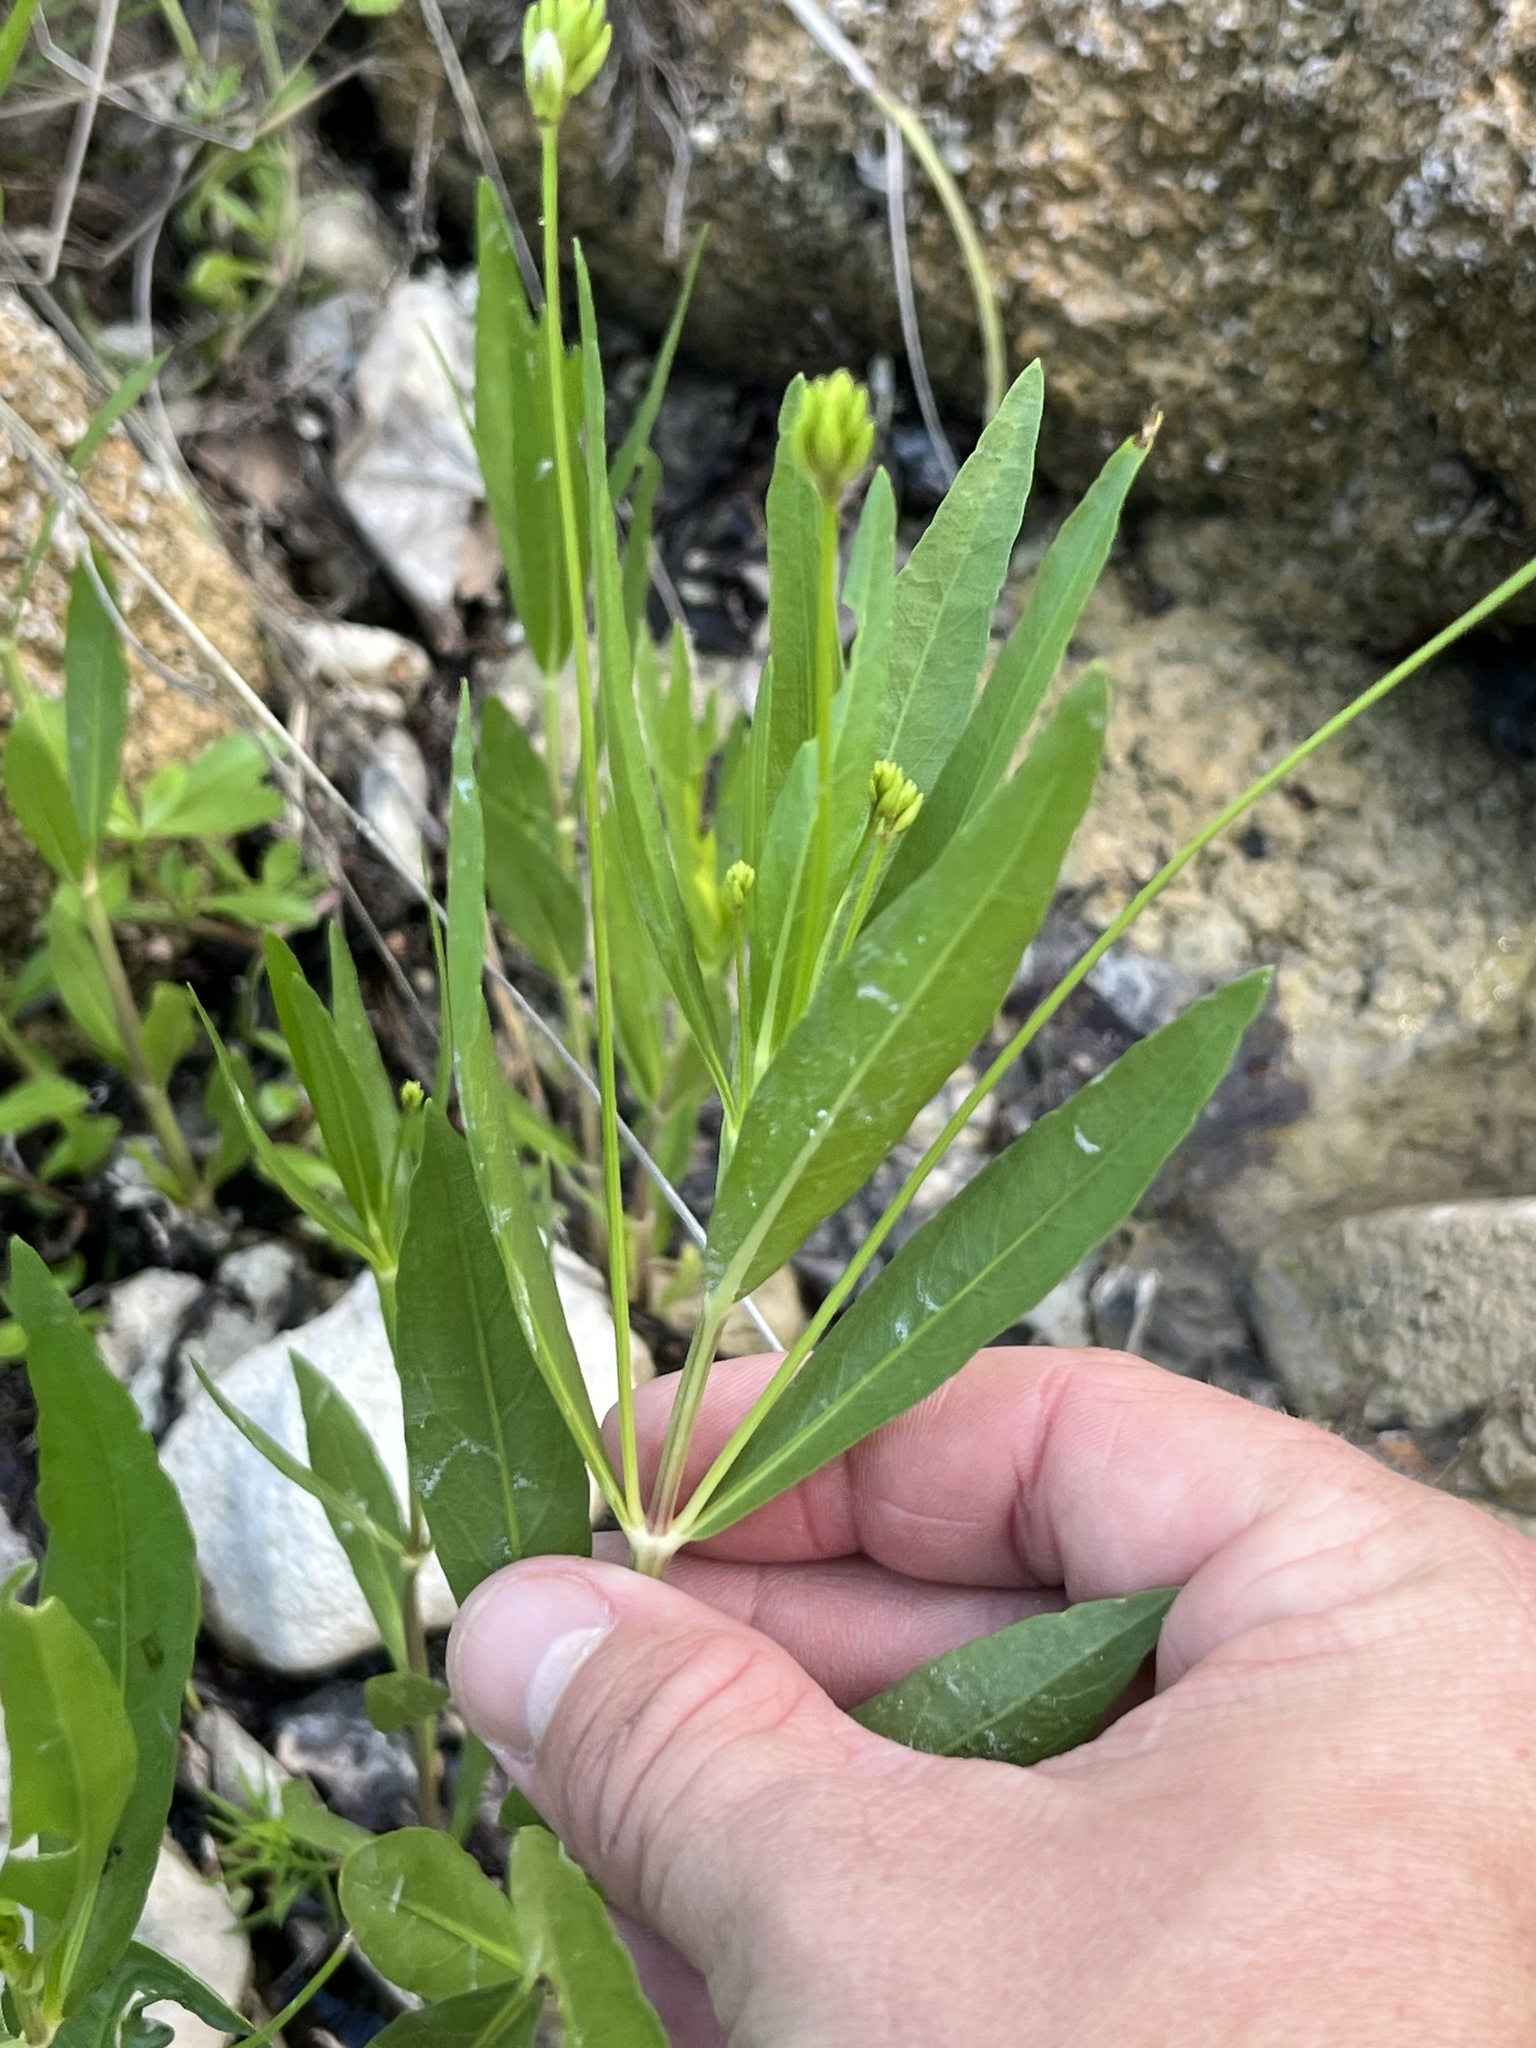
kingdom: Plantae
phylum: Tracheophyta
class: Magnoliopsida
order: Lamiales
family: Acanthaceae
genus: Dianthera
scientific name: Dianthera americana
